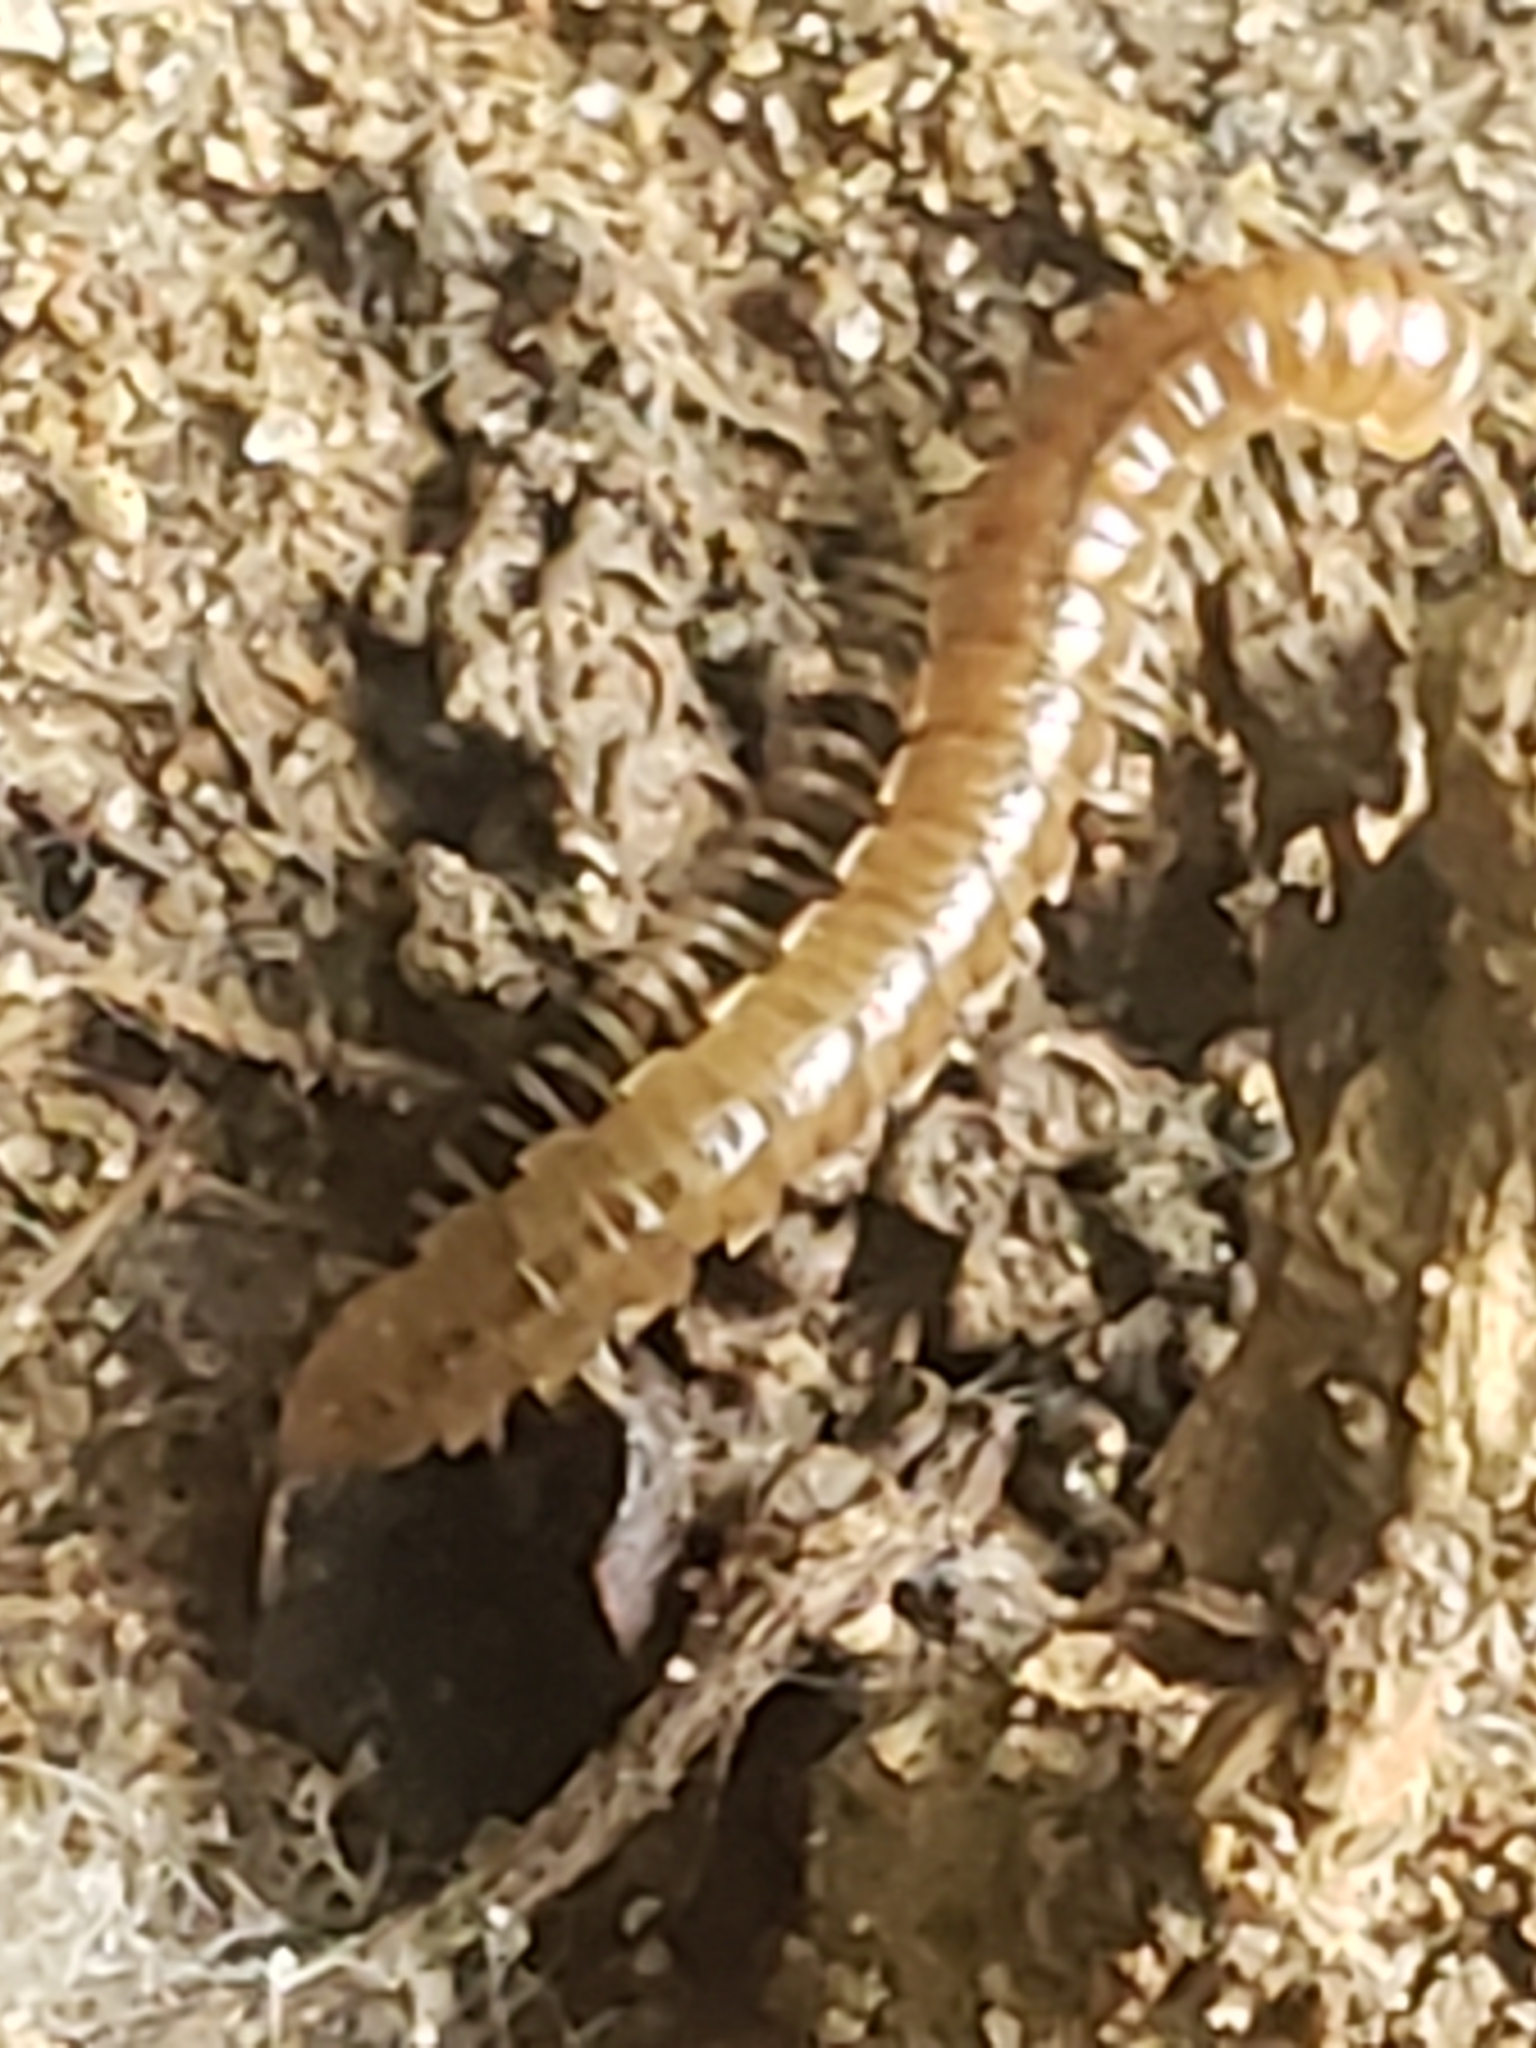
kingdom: Animalia
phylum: Arthropoda
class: Diplopoda
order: Polydesmida
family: Paradoxosomatidae
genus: Oxidus
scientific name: Oxidus gracilis
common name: Greenhouse millipede
